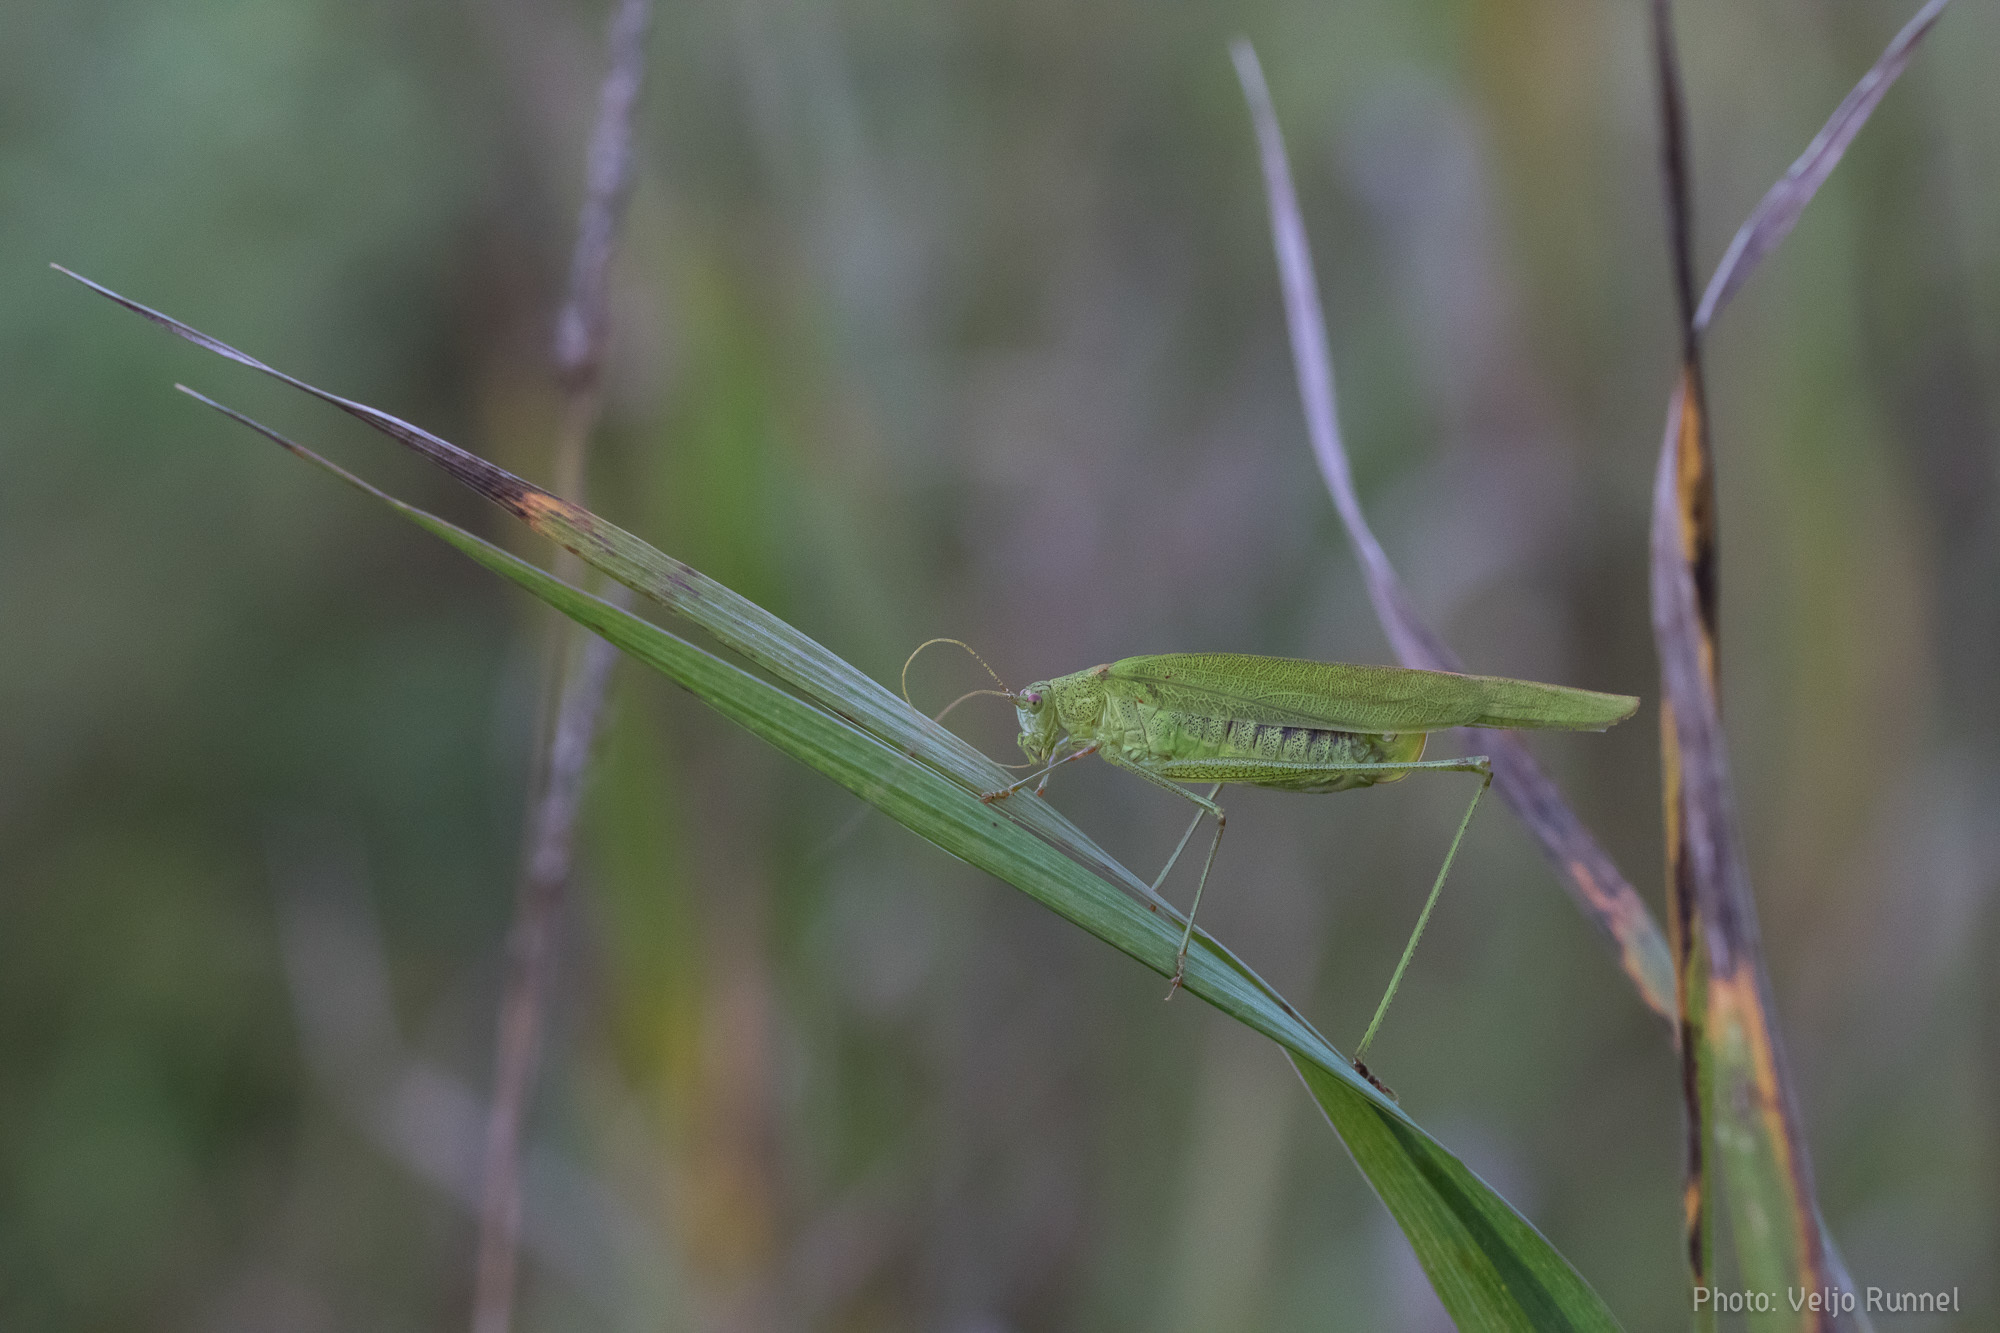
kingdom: Animalia
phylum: Arthropoda
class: Insecta
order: Orthoptera
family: Tettigoniidae
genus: Phaneroptera
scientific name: Phaneroptera falcata
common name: Sickle-bearing bush-cricket
